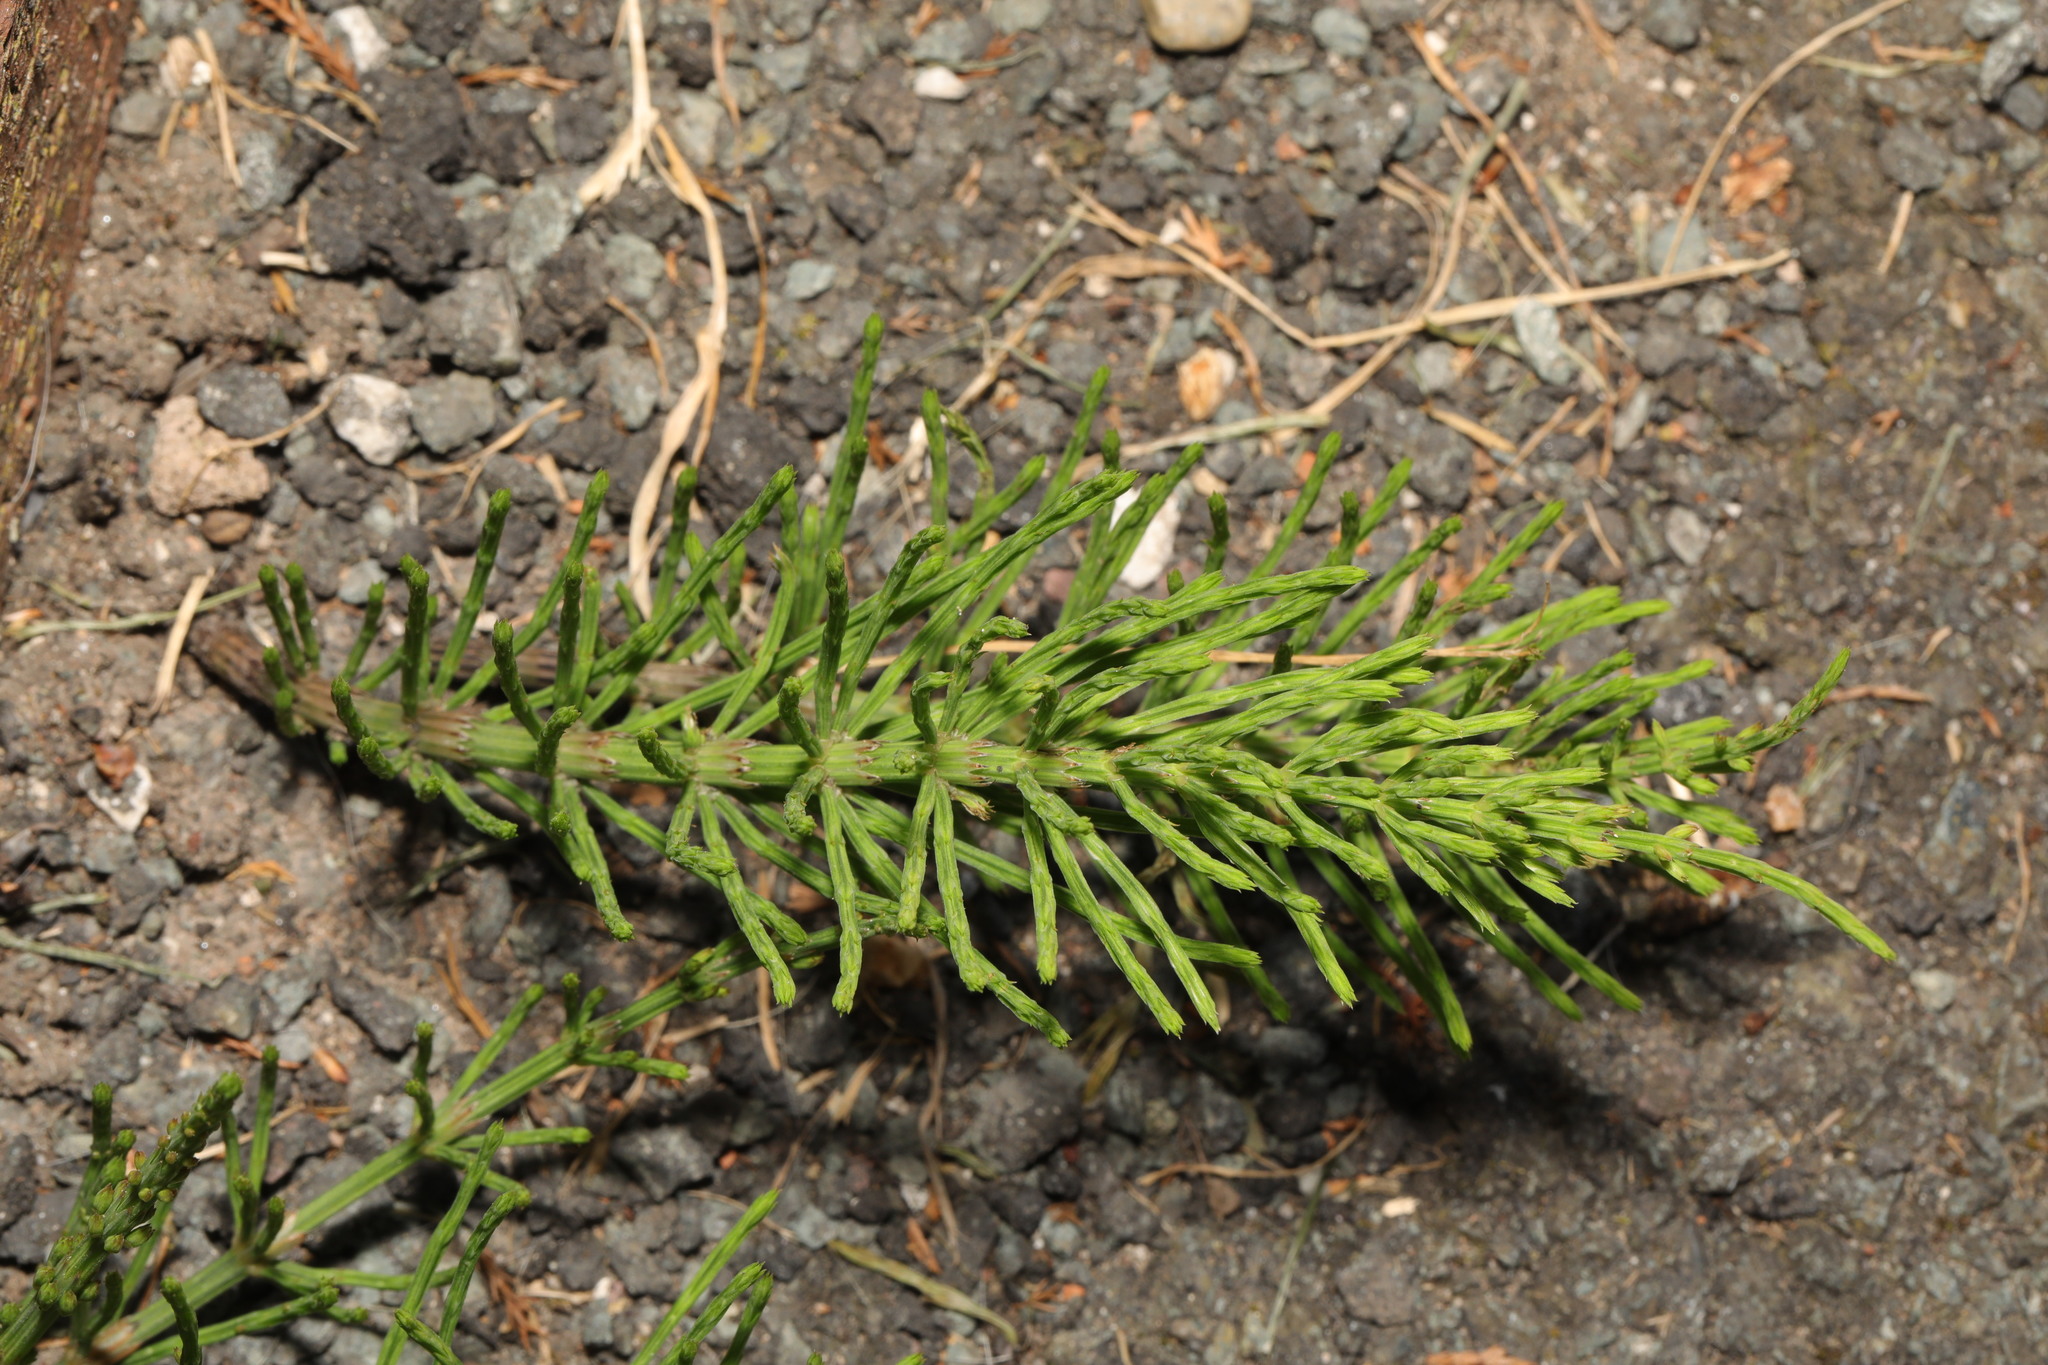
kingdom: Plantae
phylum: Tracheophyta
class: Polypodiopsida
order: Equisetales
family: Equisetaceae
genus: Equisetum
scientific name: Equisetum arvense
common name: Field horsetail
